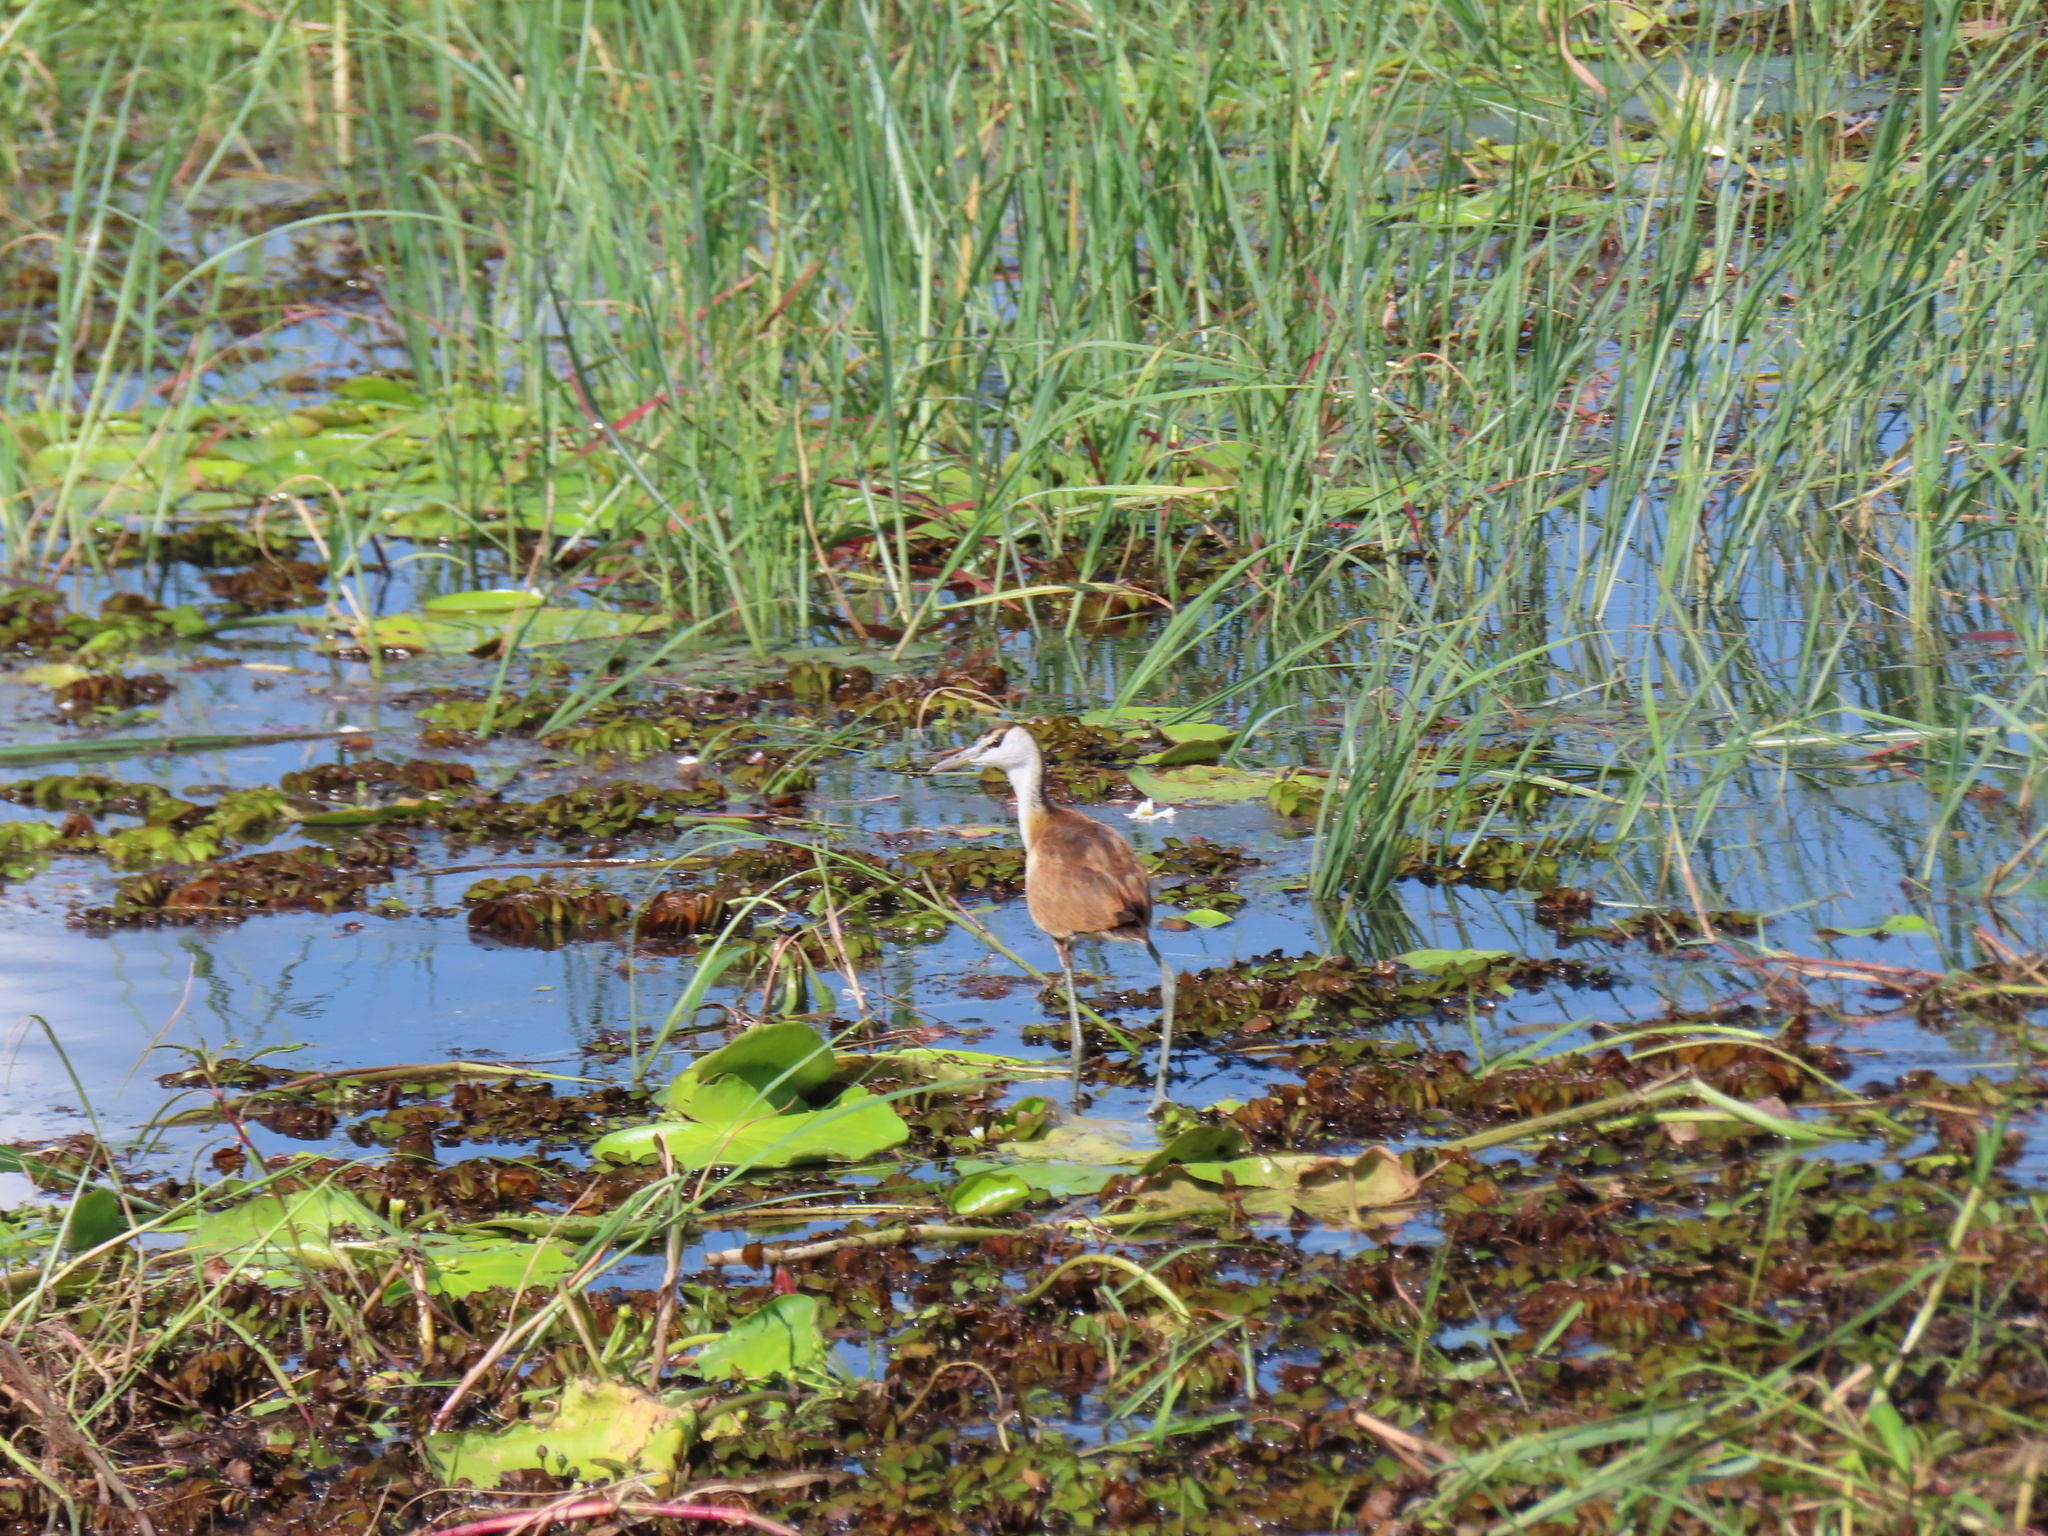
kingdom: Animalia
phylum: Chordata
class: Aves
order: Charadriiformes
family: Jacanidae
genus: Actophilornis
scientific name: Actophilornis africanus
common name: African jacana
